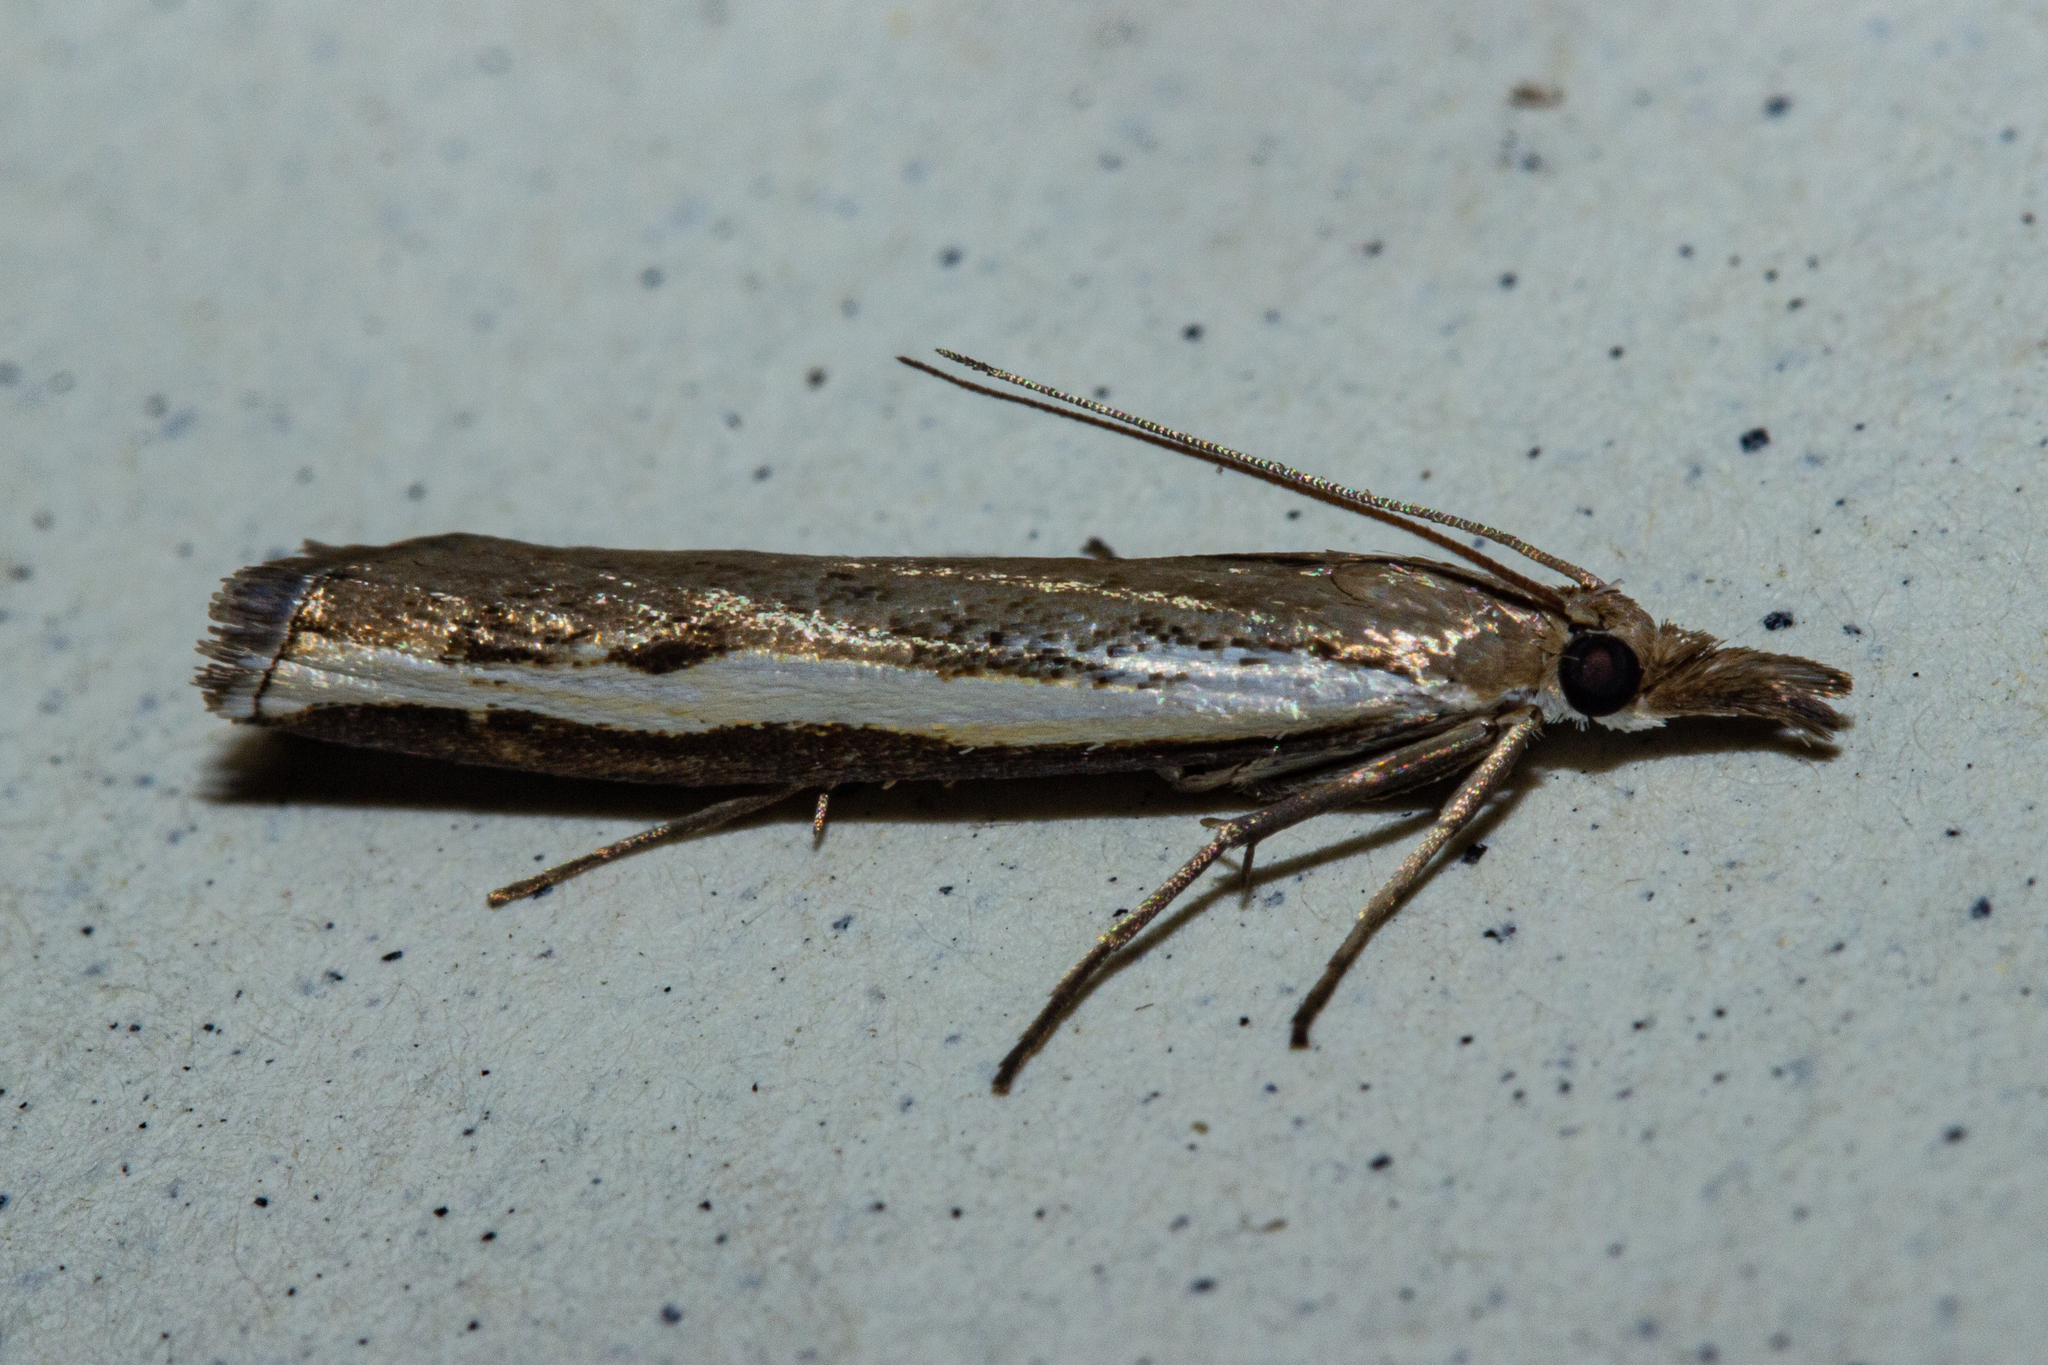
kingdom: Animalia
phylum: Arthropoda
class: Insecta
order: Lepidoptera
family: Crambidae
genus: Orocrambus
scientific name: Orocrambus flexuosellus
